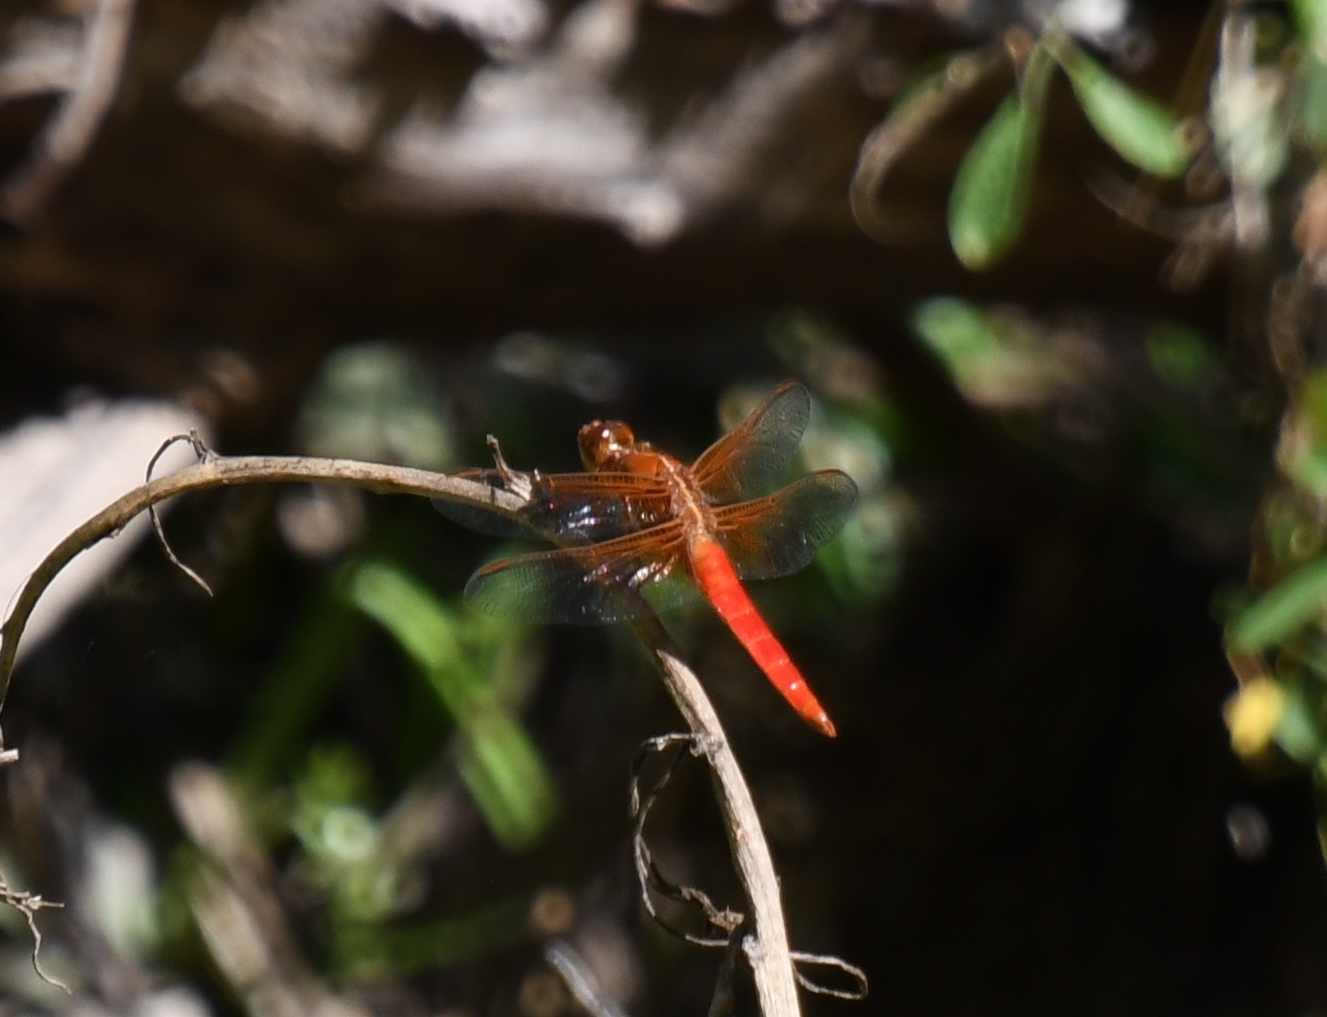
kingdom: Animalia
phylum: Arthropoda
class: Insecta
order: Odonata
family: Libellulidae
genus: Libellula
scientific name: Libellula croceipennis
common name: Neon skimmer
